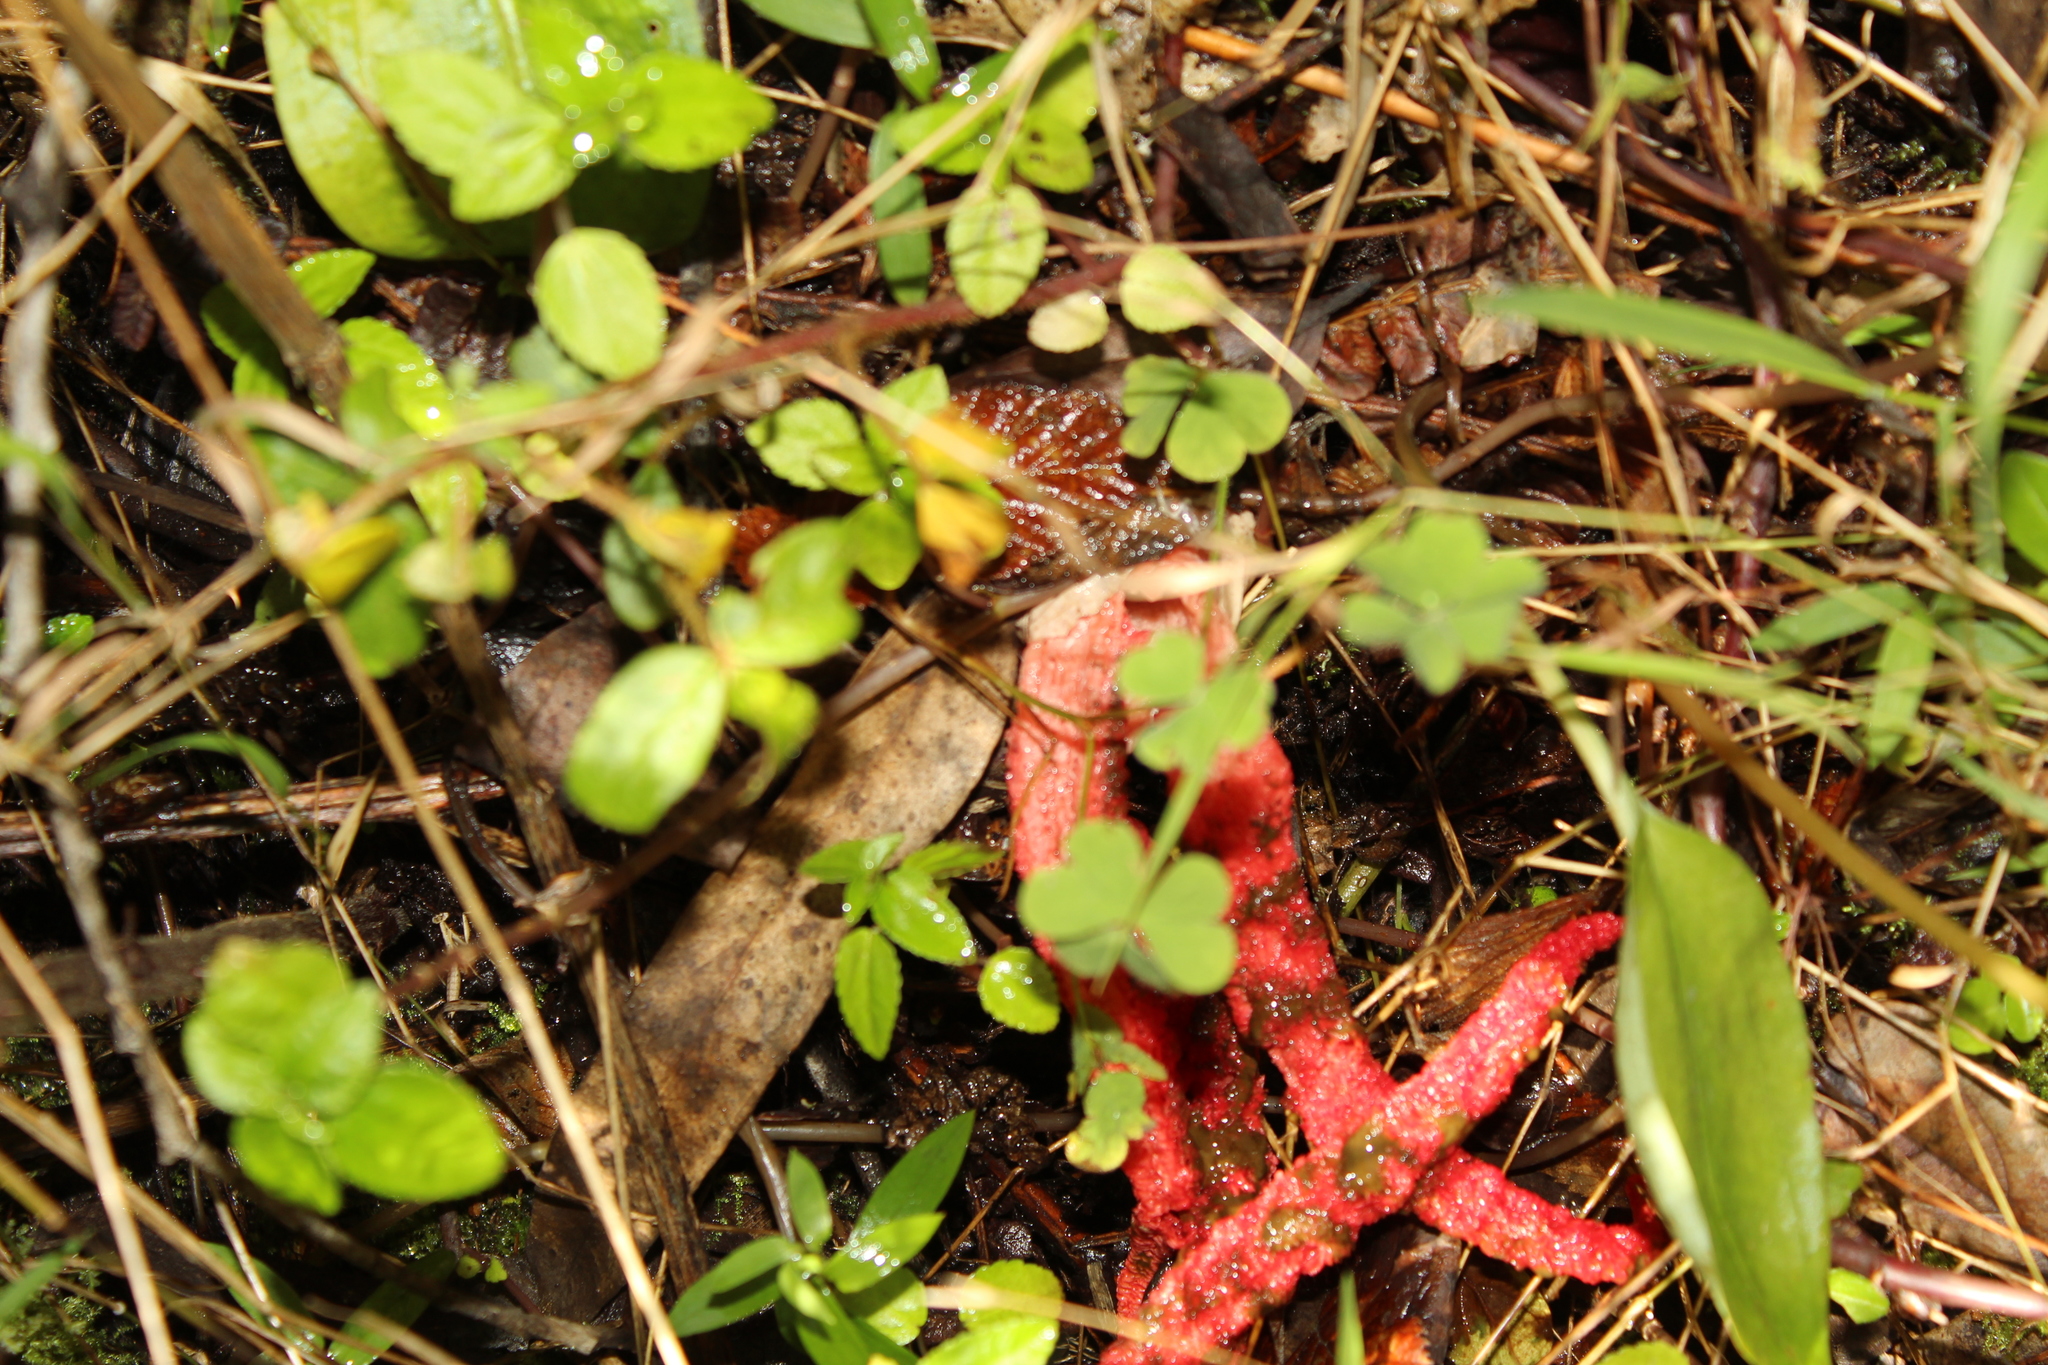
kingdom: Fungi
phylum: Basidiomycota
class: Agaricomycetes
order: Phallales
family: Phallaceae
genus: Clathrus
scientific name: Clathrus archeri
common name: Devil's fingers
